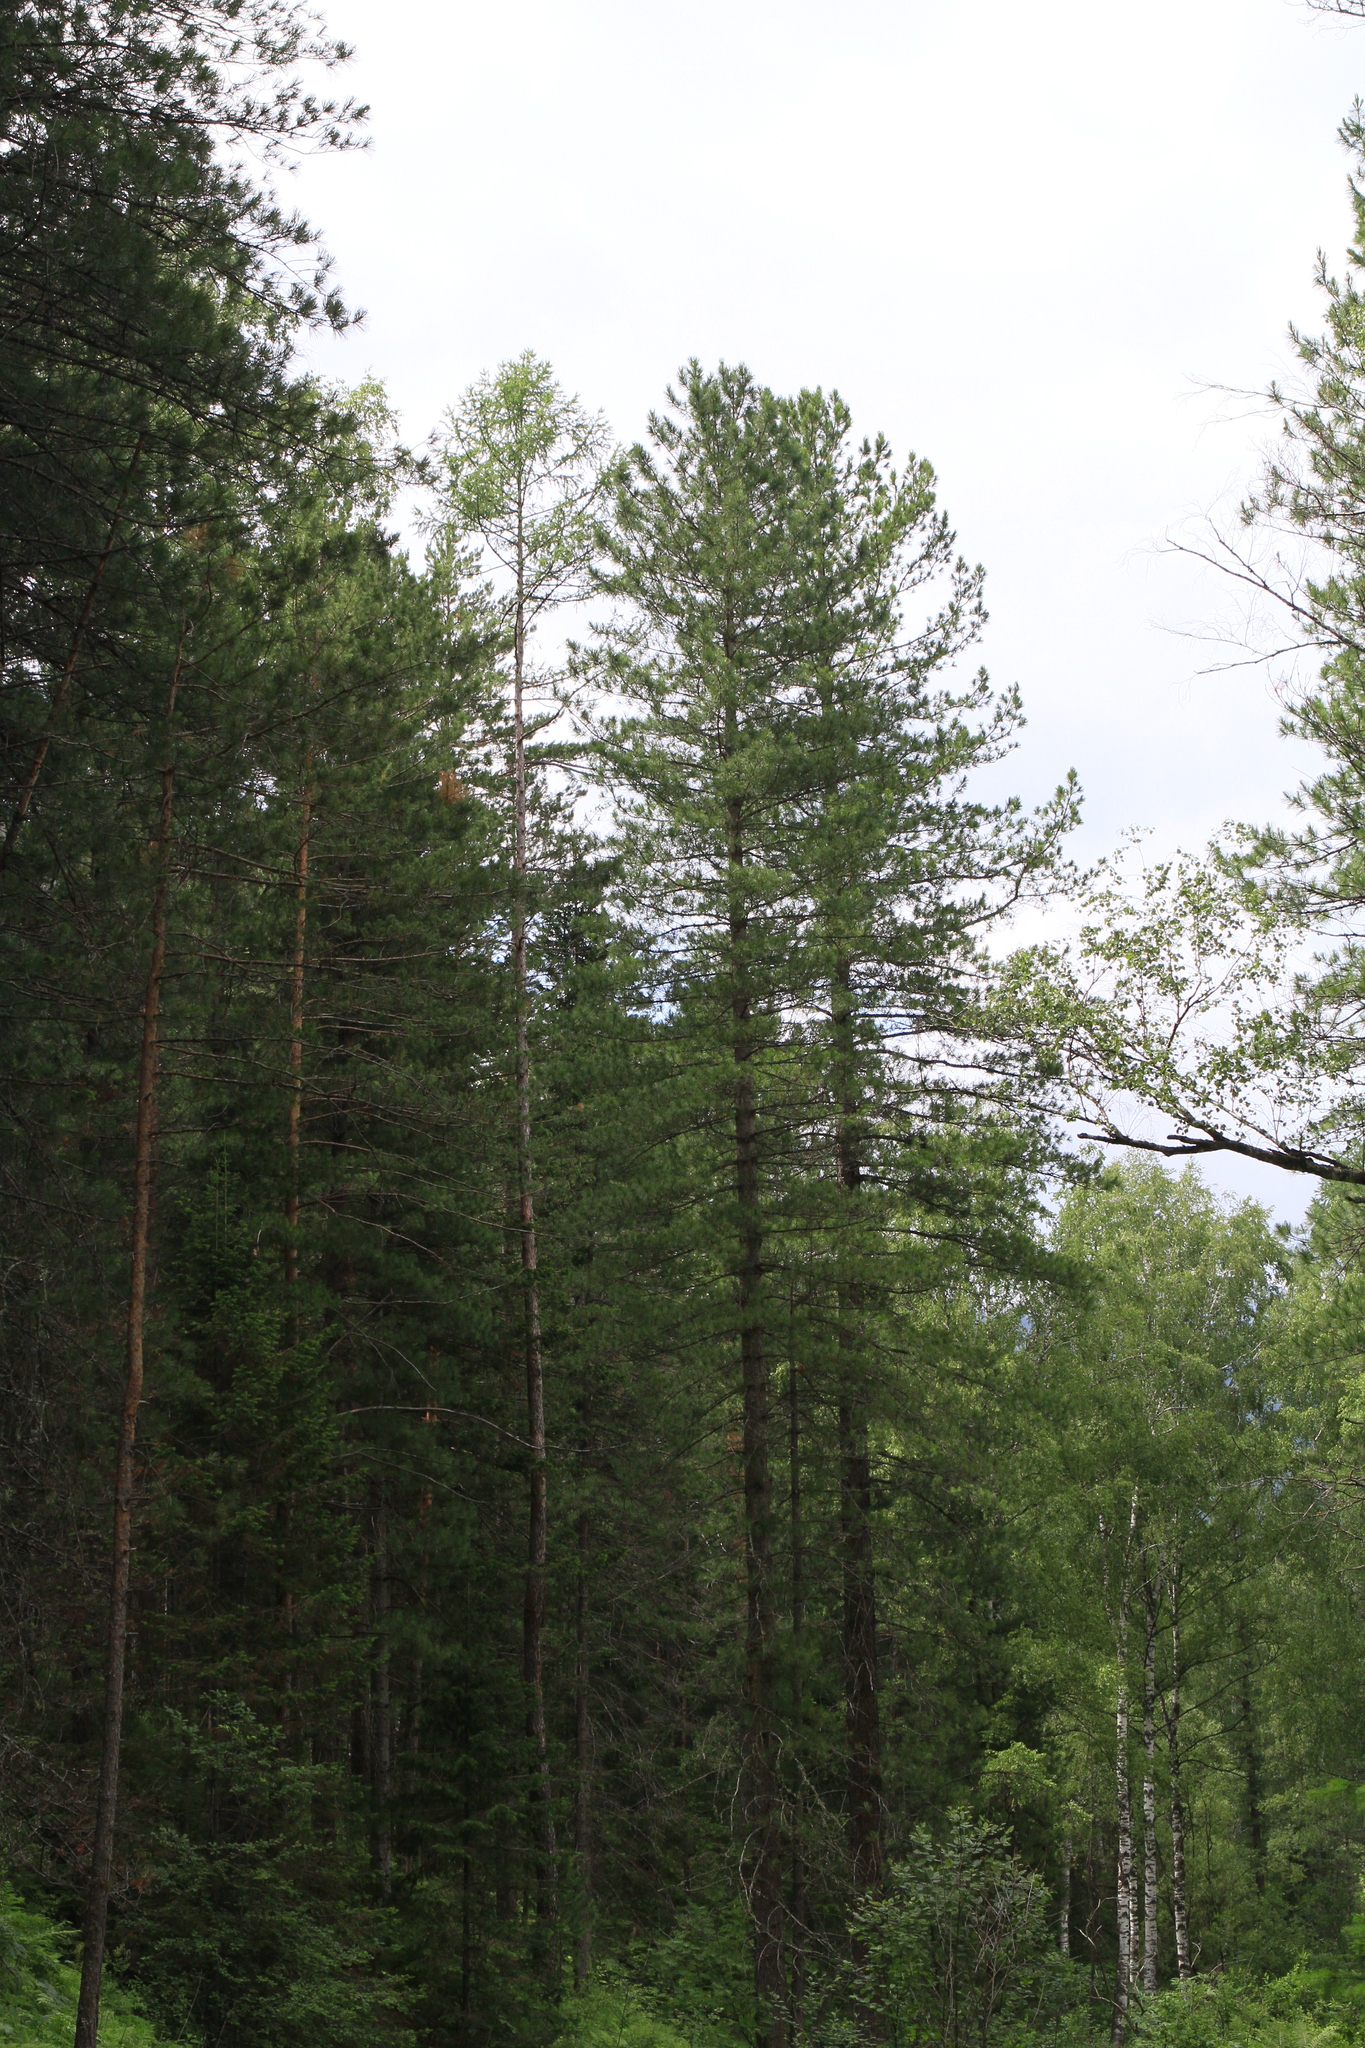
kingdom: Plantae
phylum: Tracheophyta
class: Pinopsida
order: Pinales
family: Pinaceae
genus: Pinus
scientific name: Pinus sibirica
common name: Siberian pine
